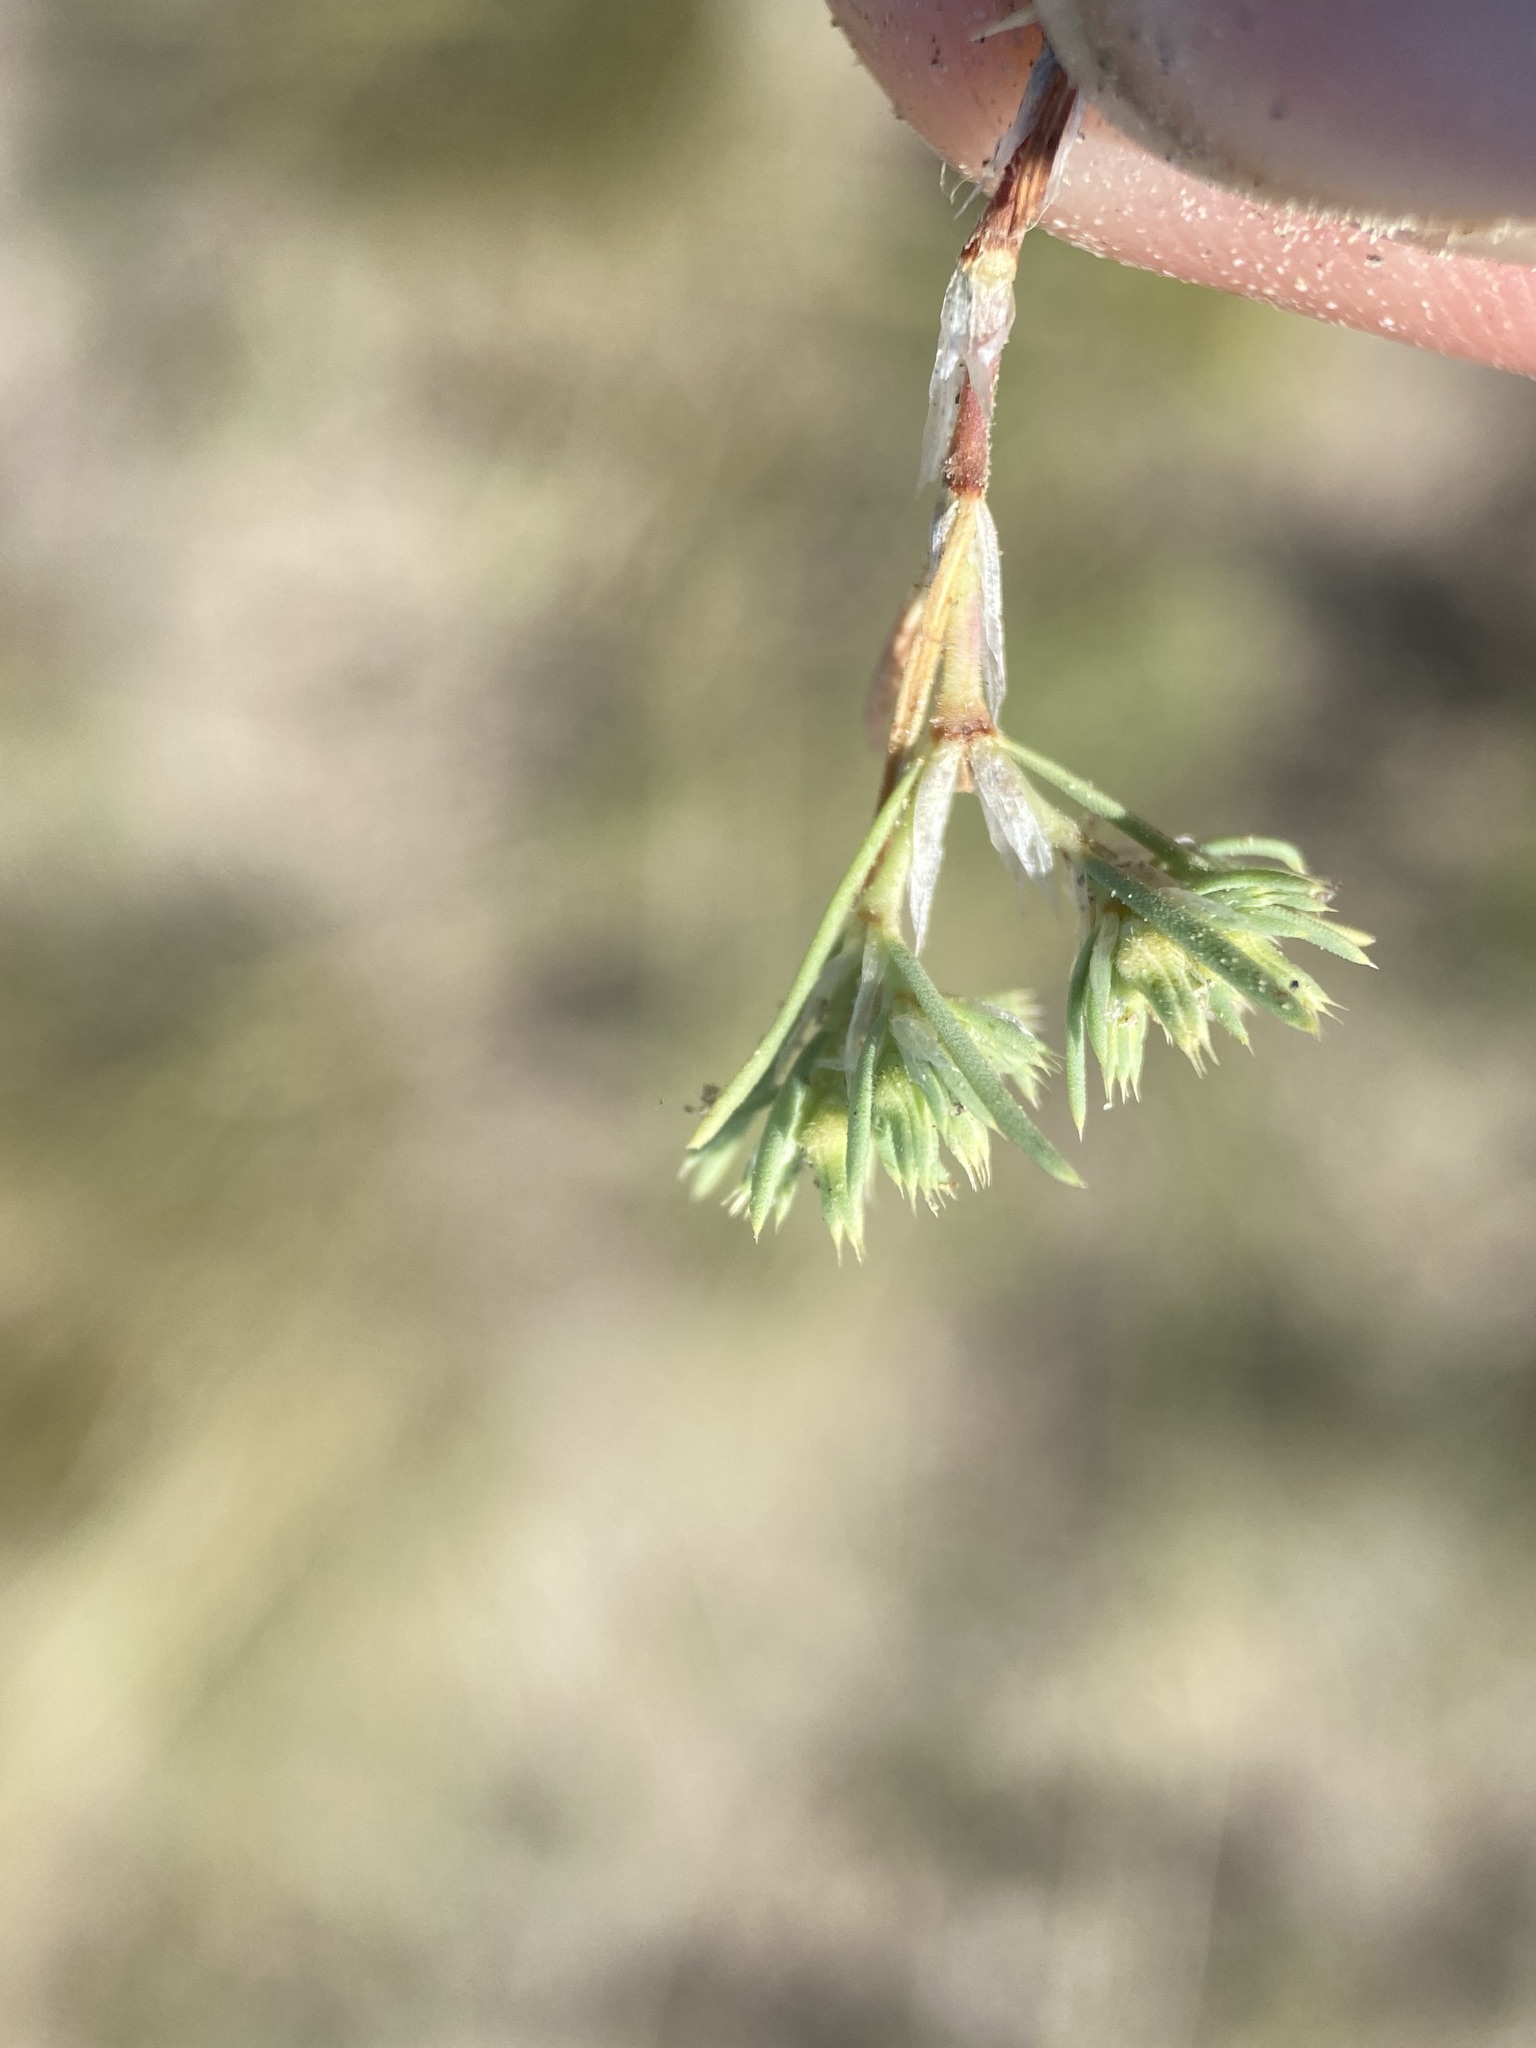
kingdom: Plantae
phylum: Tracheophyta
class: Magnoliopsida
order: Caryophyllales
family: Caryophyllaceae
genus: Paronychia
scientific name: Paronychia depressa
